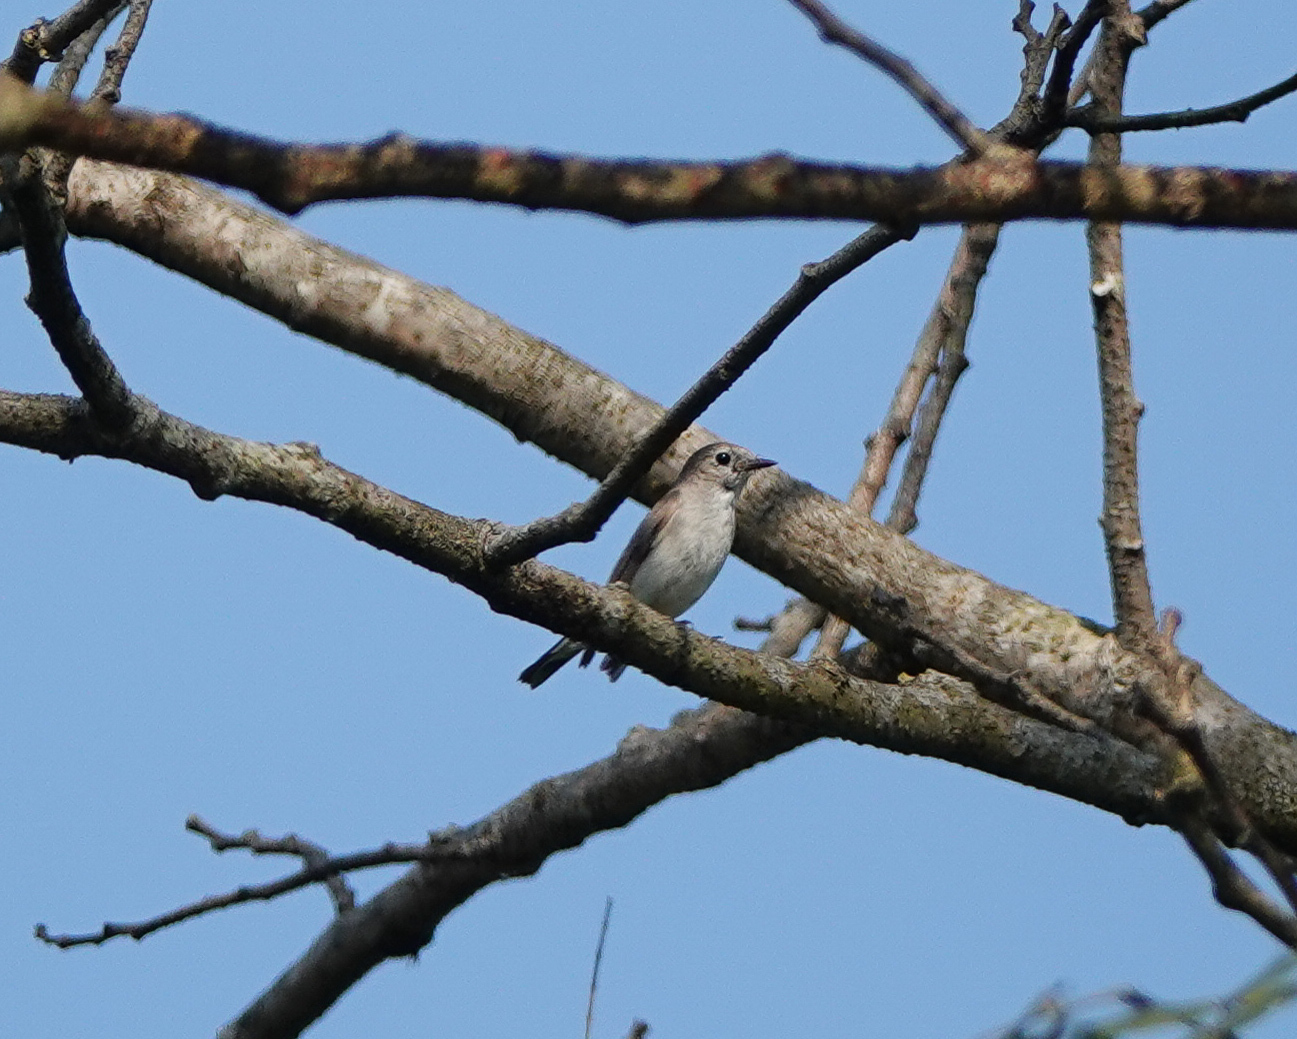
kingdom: Animalia
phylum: Chordata
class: Aves
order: Passeriformes
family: Muscicapidae
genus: Ficedula
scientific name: Ficedula albicilla
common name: Taiga flycatcher
